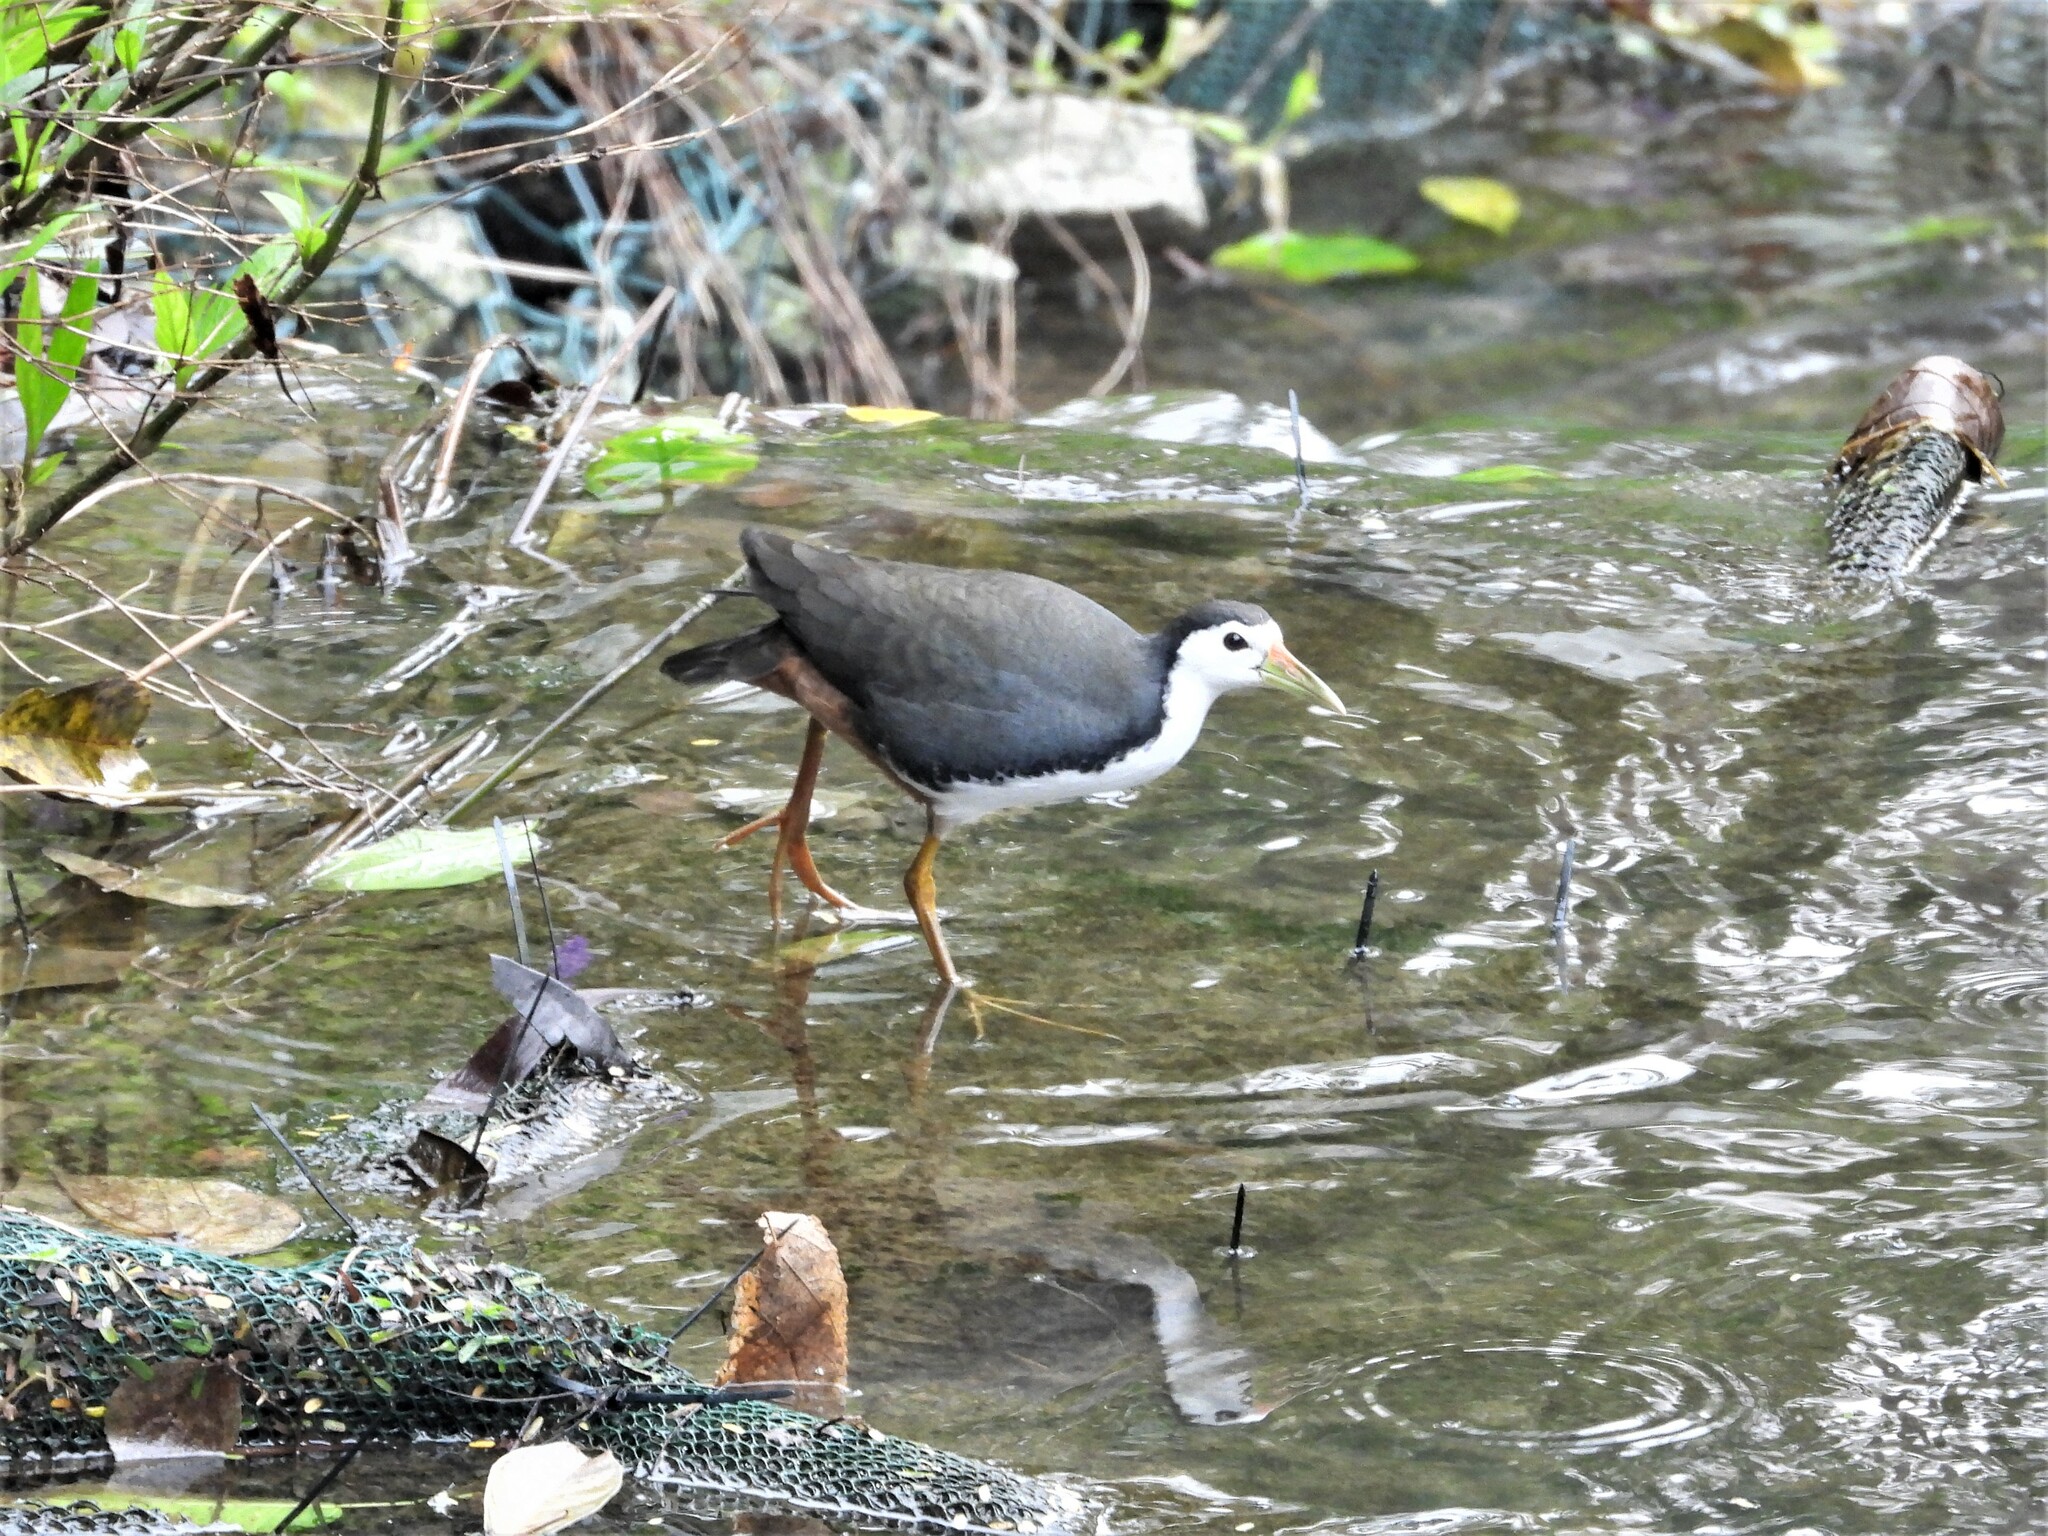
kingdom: Animalia
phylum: Chordata
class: Aves
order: Gruiformes
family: Rallidae
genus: Amaurornis
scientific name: Amaurornis phoenicurus
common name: White-breasted waterhen
